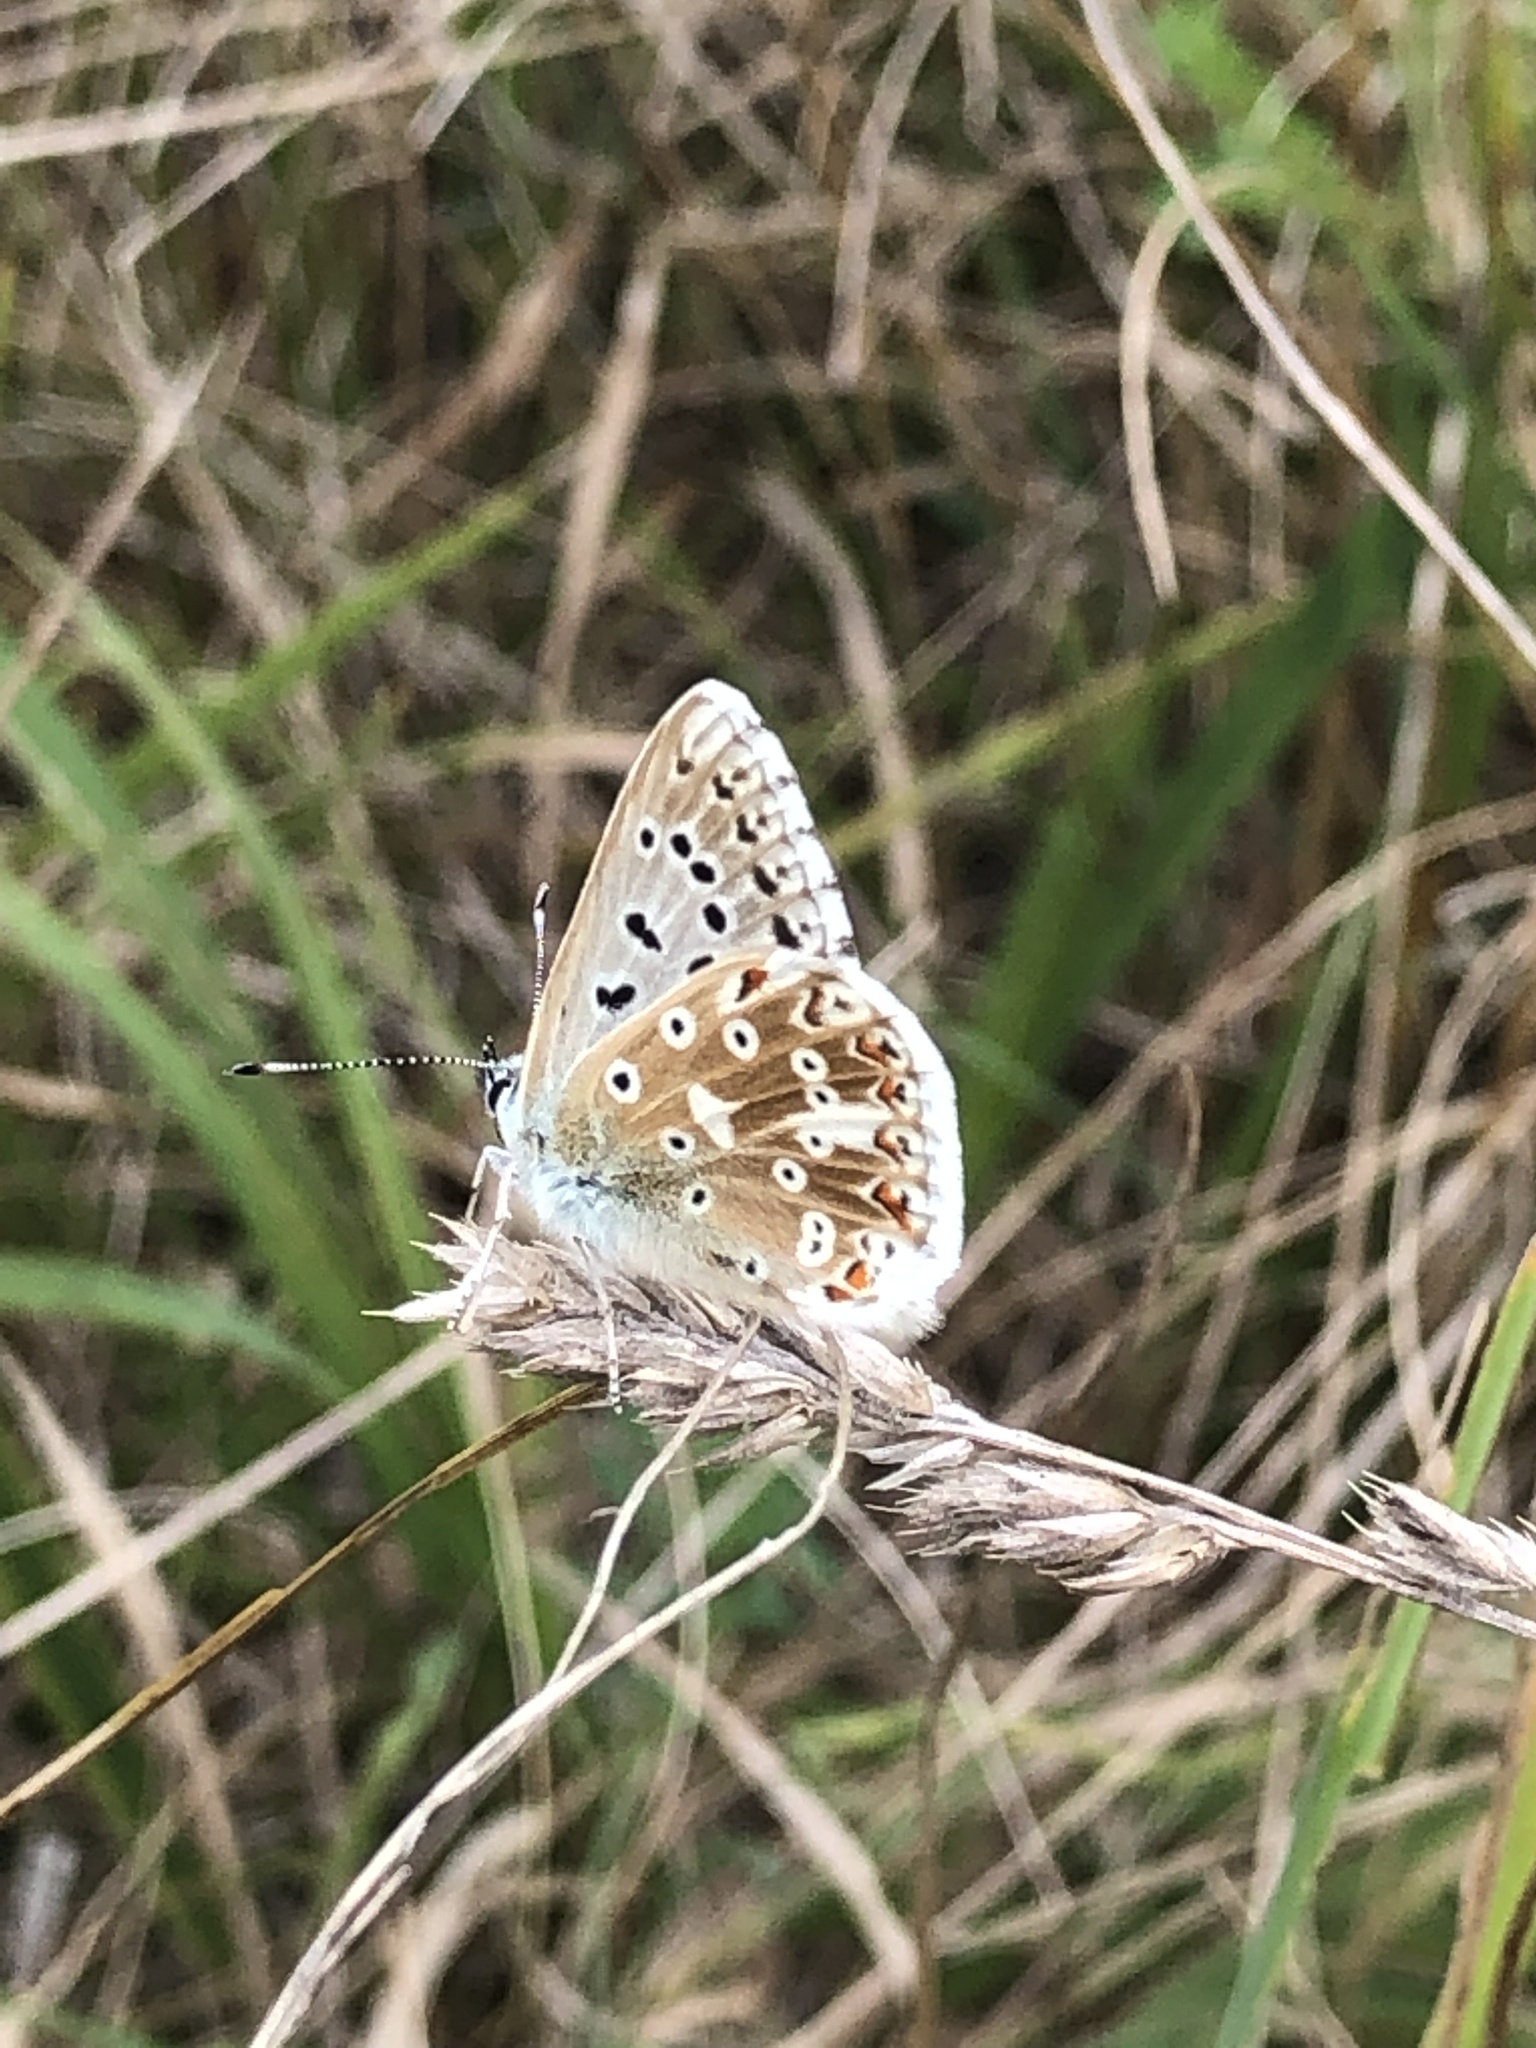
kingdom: Animalia
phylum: Arthropoda
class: Insecta
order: Lepidoptera
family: Lycaenidae
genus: Lysandra
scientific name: Lysandra coridon
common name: Chalkhill blue
